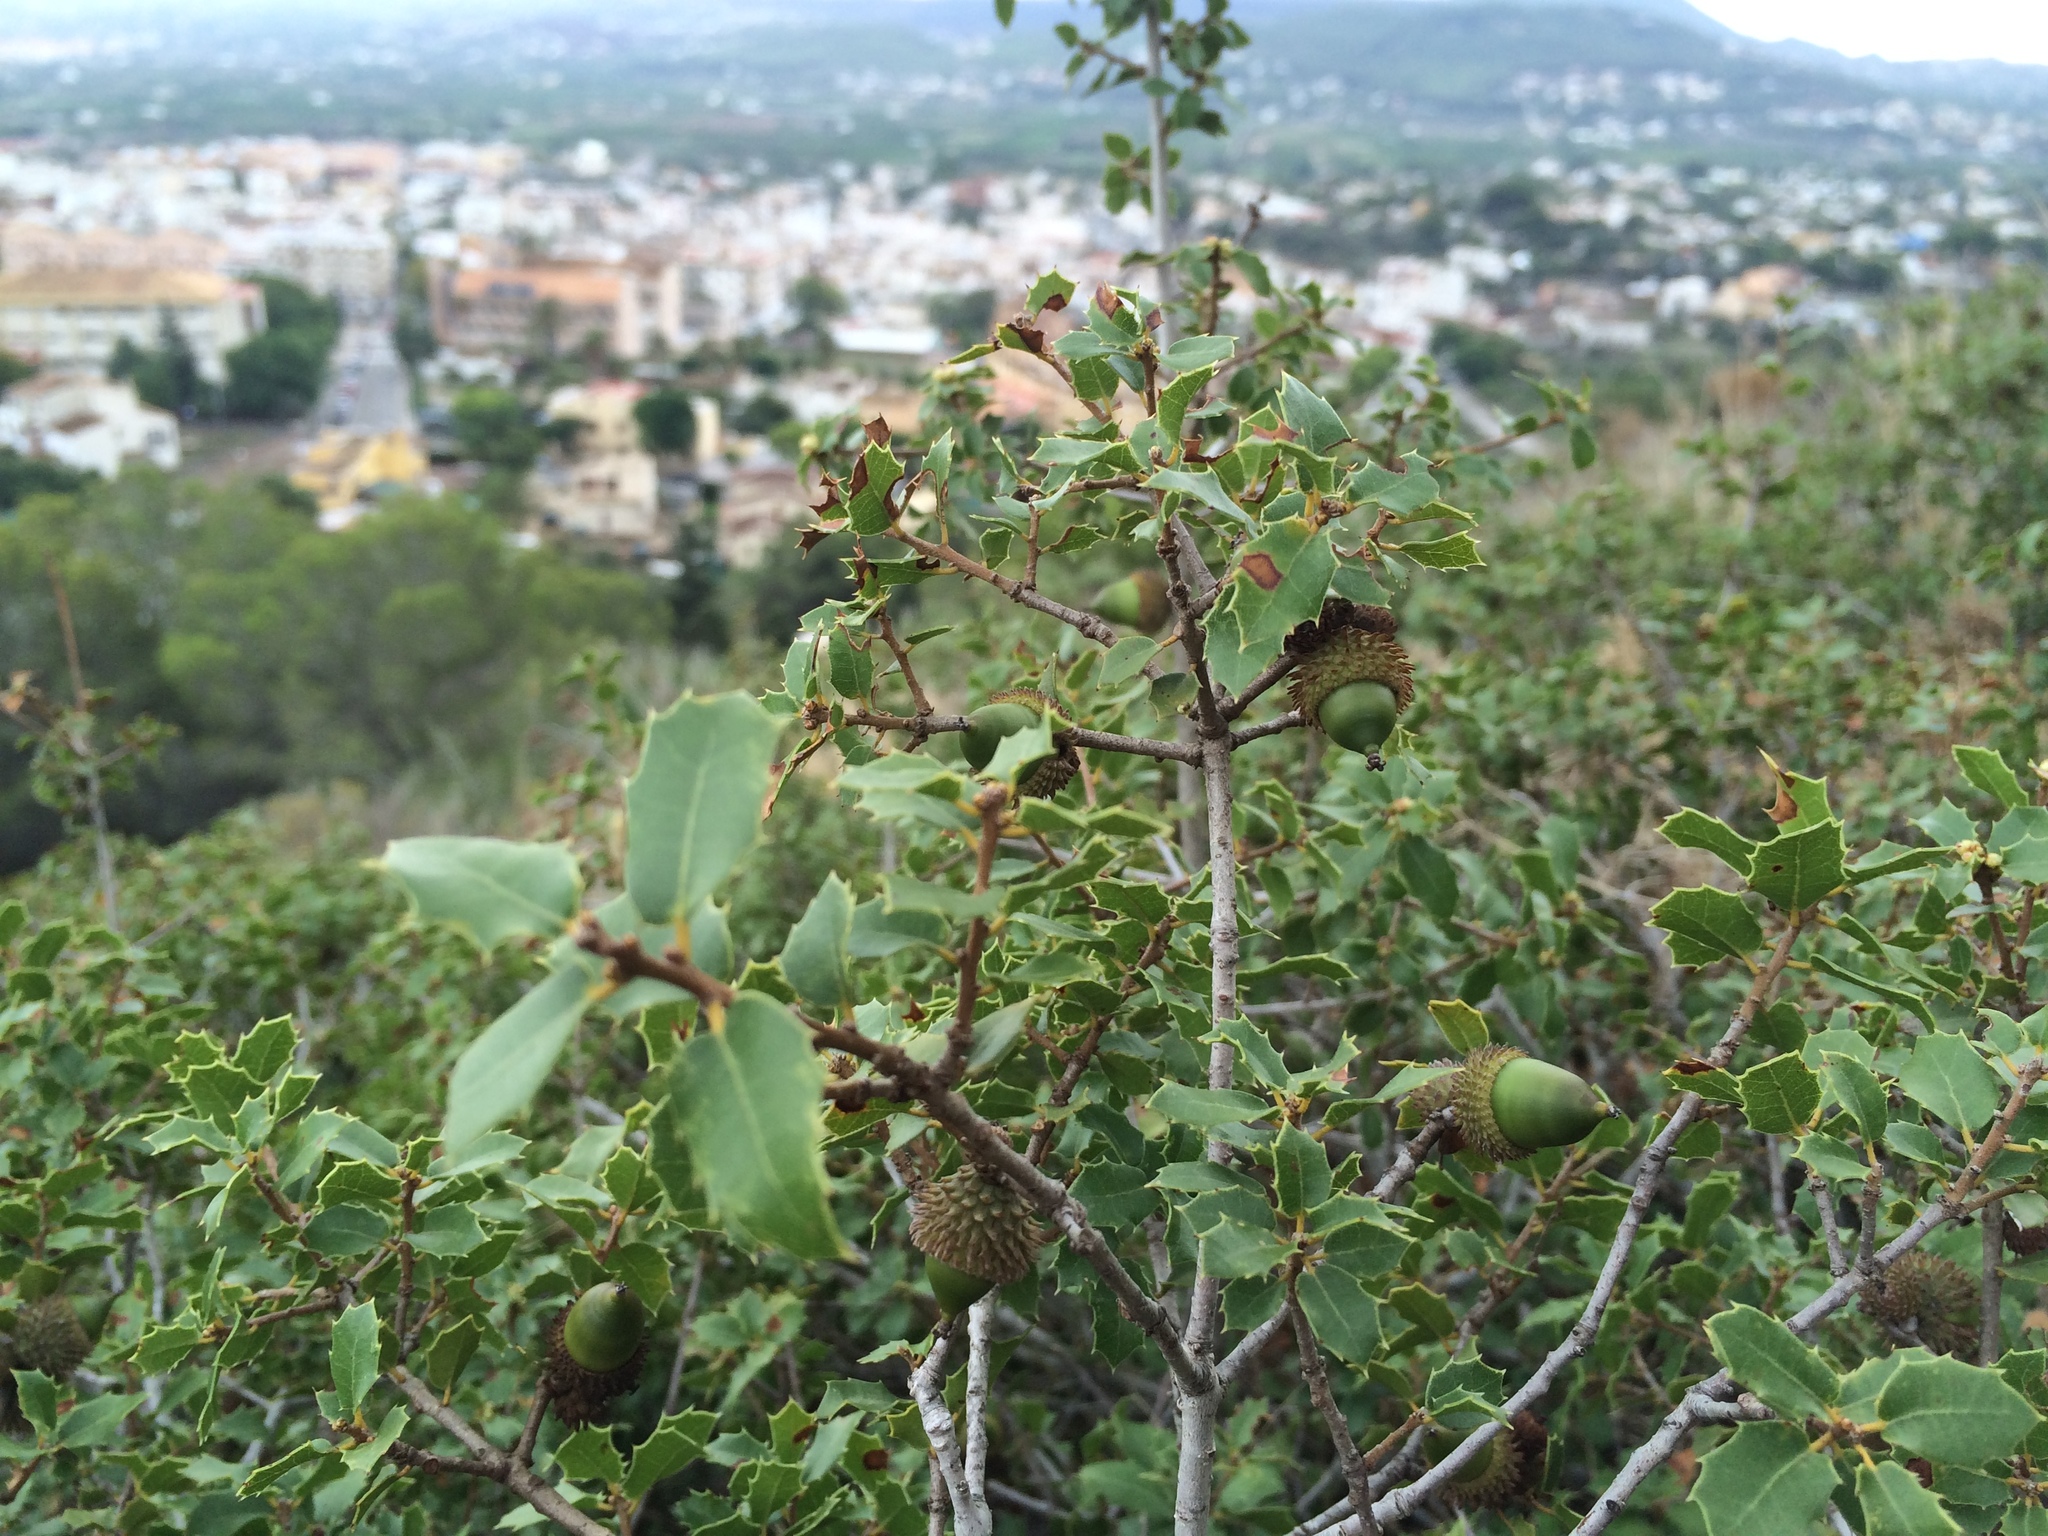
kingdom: Plantae
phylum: Tracheophyta
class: Magnoliopsida
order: Fagales
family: Fagaceae
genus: Quercus
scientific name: Quercus coccifera
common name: Kermes oak
